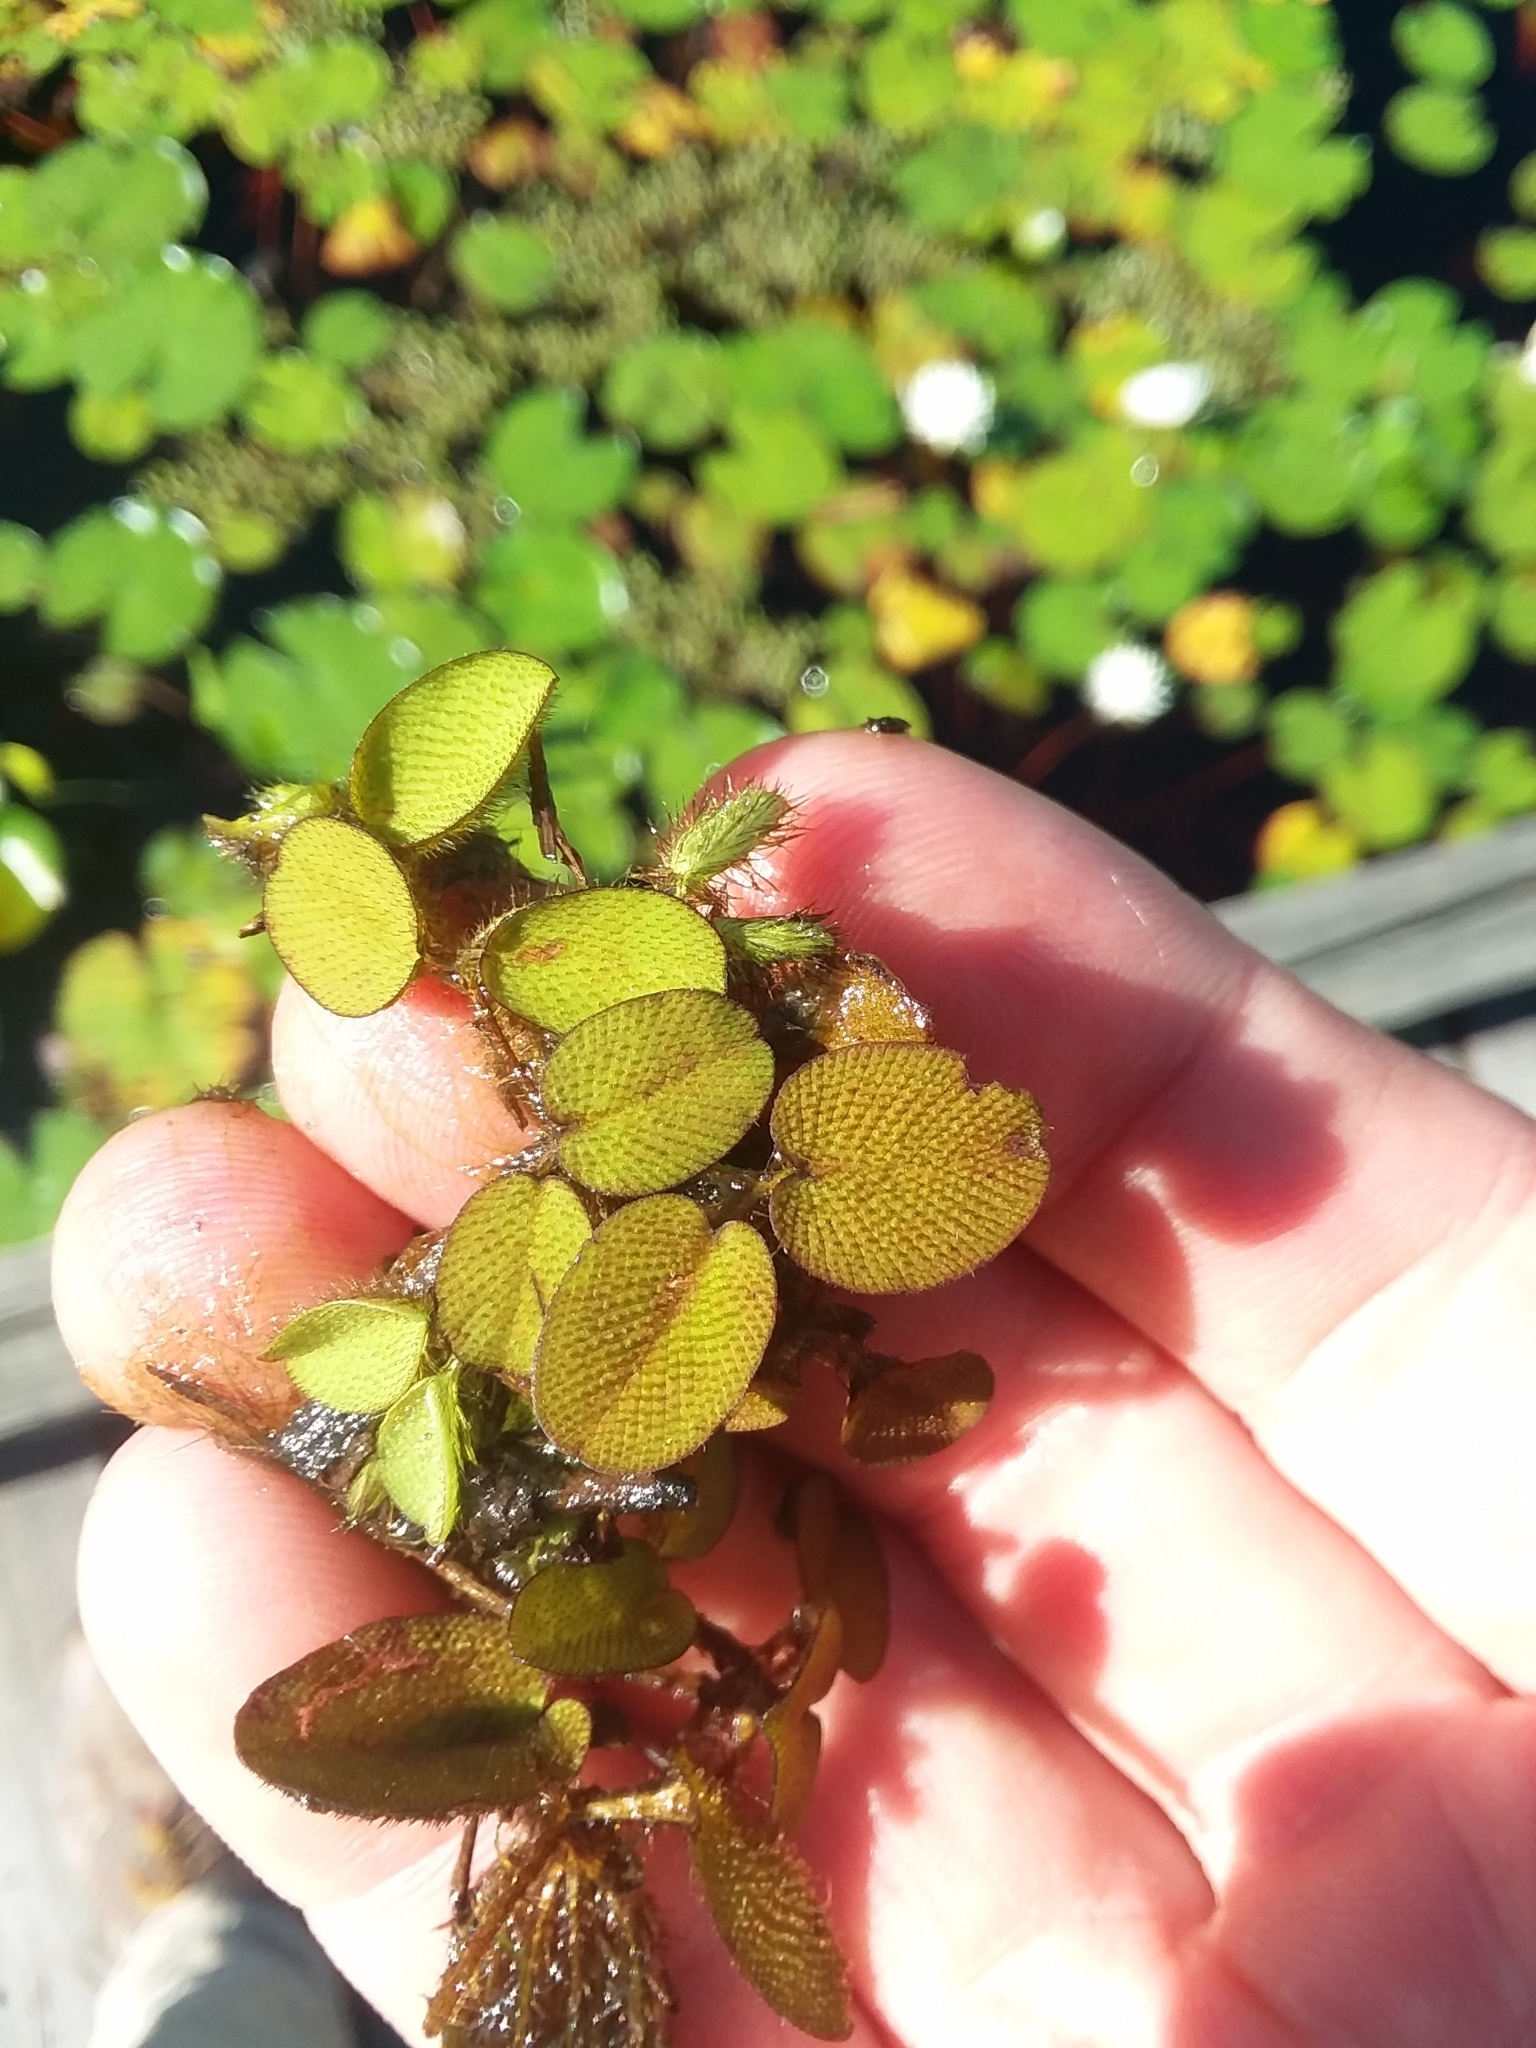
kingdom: Plantae
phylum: Tracheophyta
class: Polypodiopsida
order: Salviniales
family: Salviniaceae
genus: Salvinia
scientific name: Salvinia molesta
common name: Kariba weed
